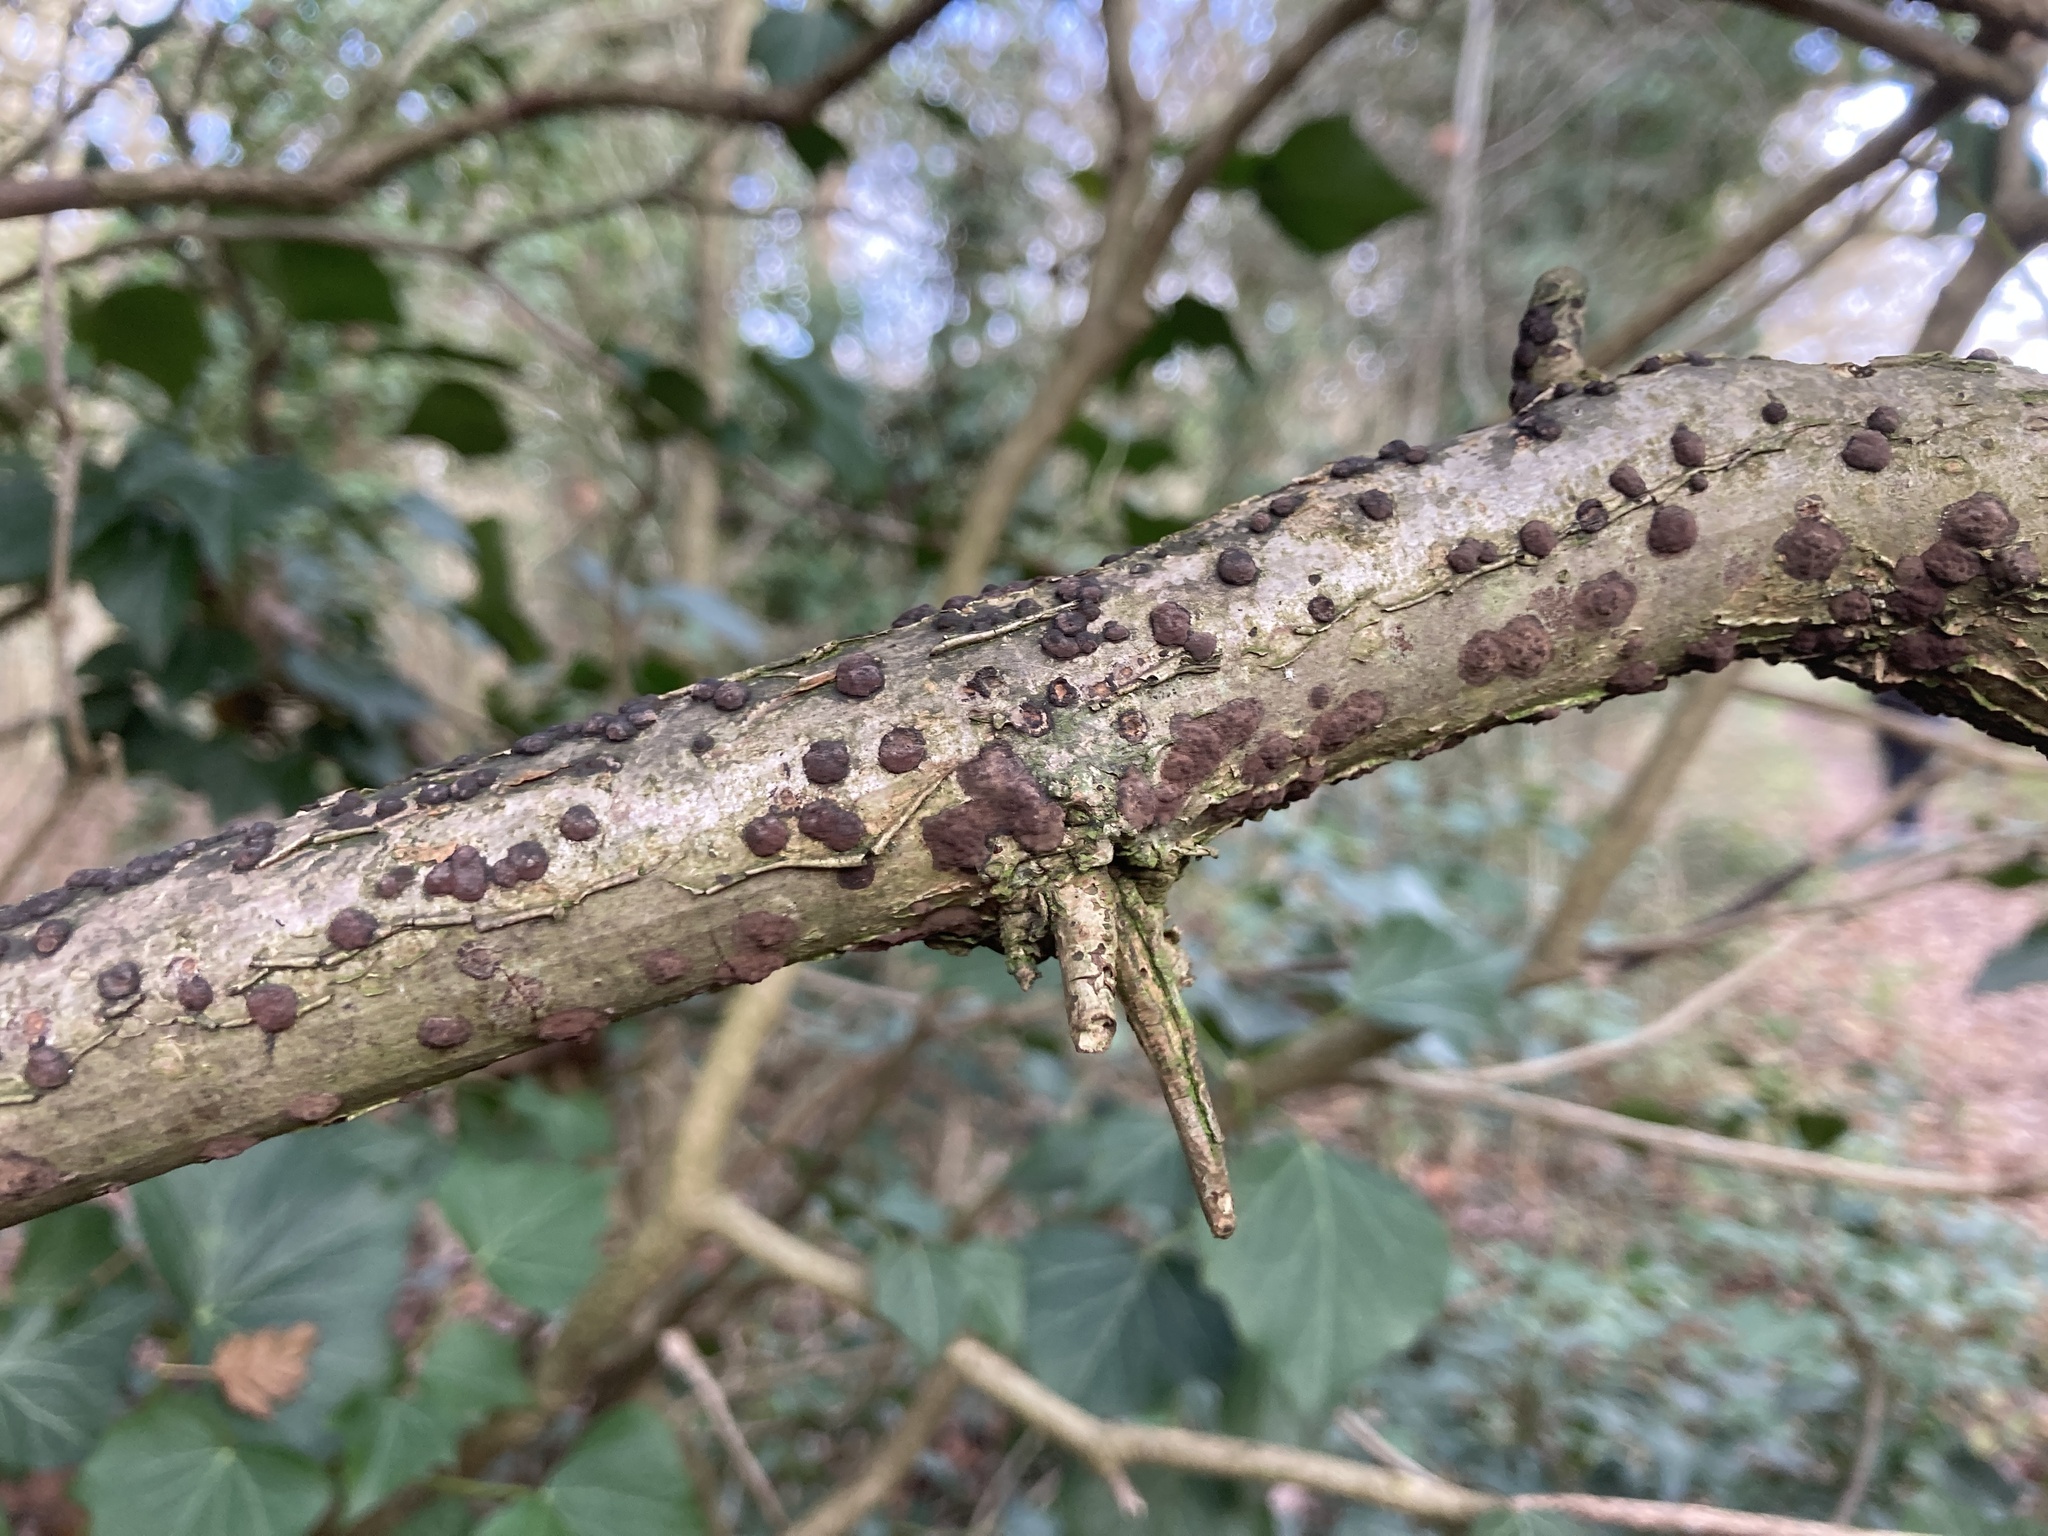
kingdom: Fungi
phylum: Ascomycota
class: Sordariomycetes
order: Xylariales
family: Hypoxylaceae
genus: Hypoxylon
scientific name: Hypoxylon fuscum
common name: Hazel woodwart
